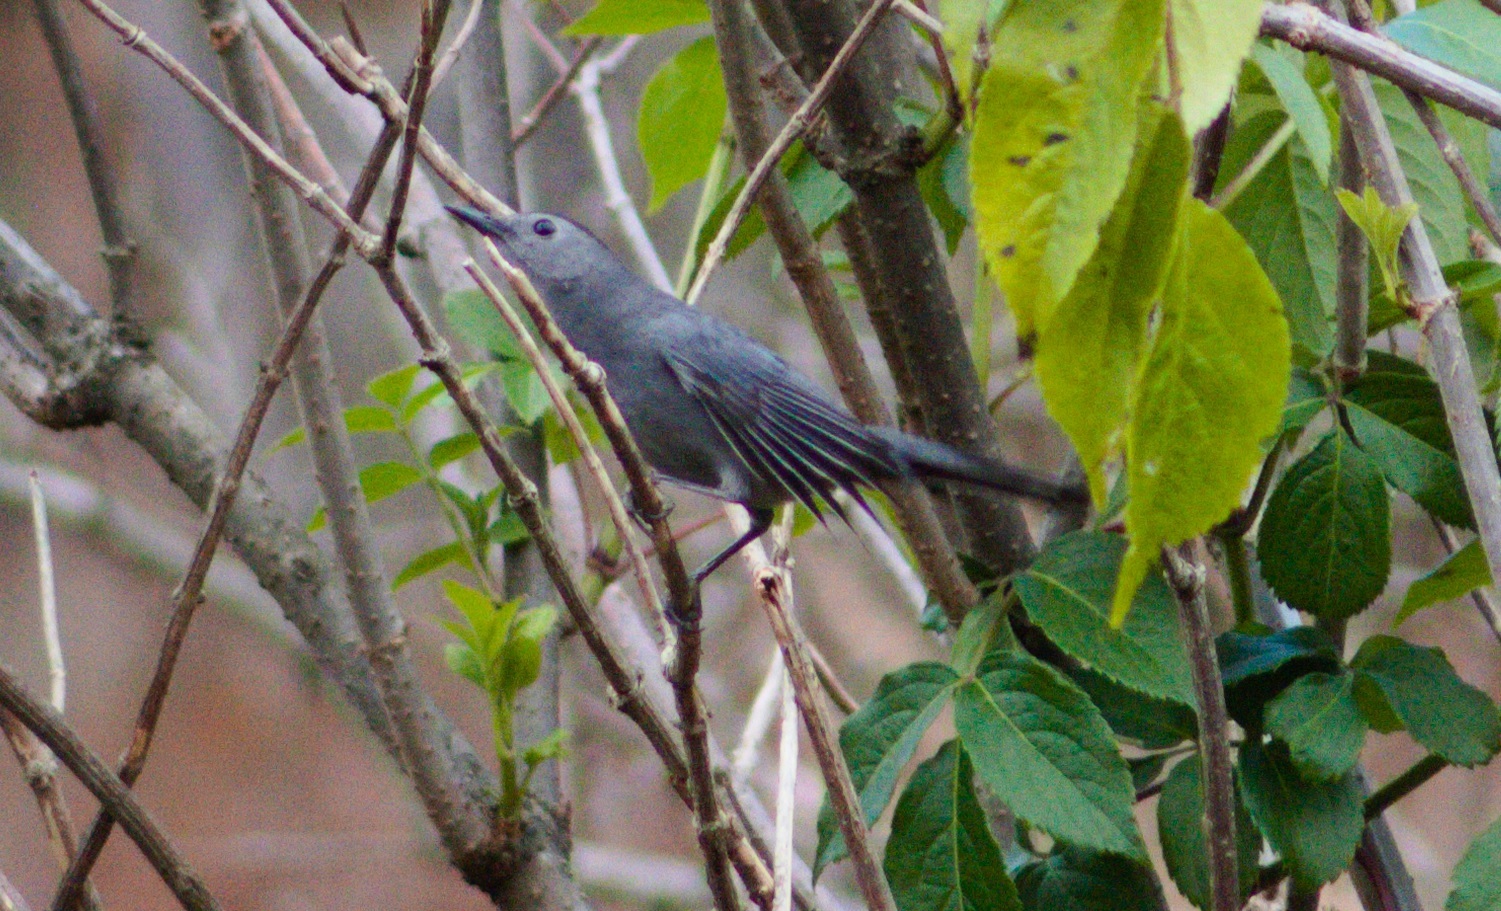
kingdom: Animalia
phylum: Chordata
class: Aves
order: Passeriformes
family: Mimidae
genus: Dumetella
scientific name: Dumetella carolinensis
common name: Gray catbird
